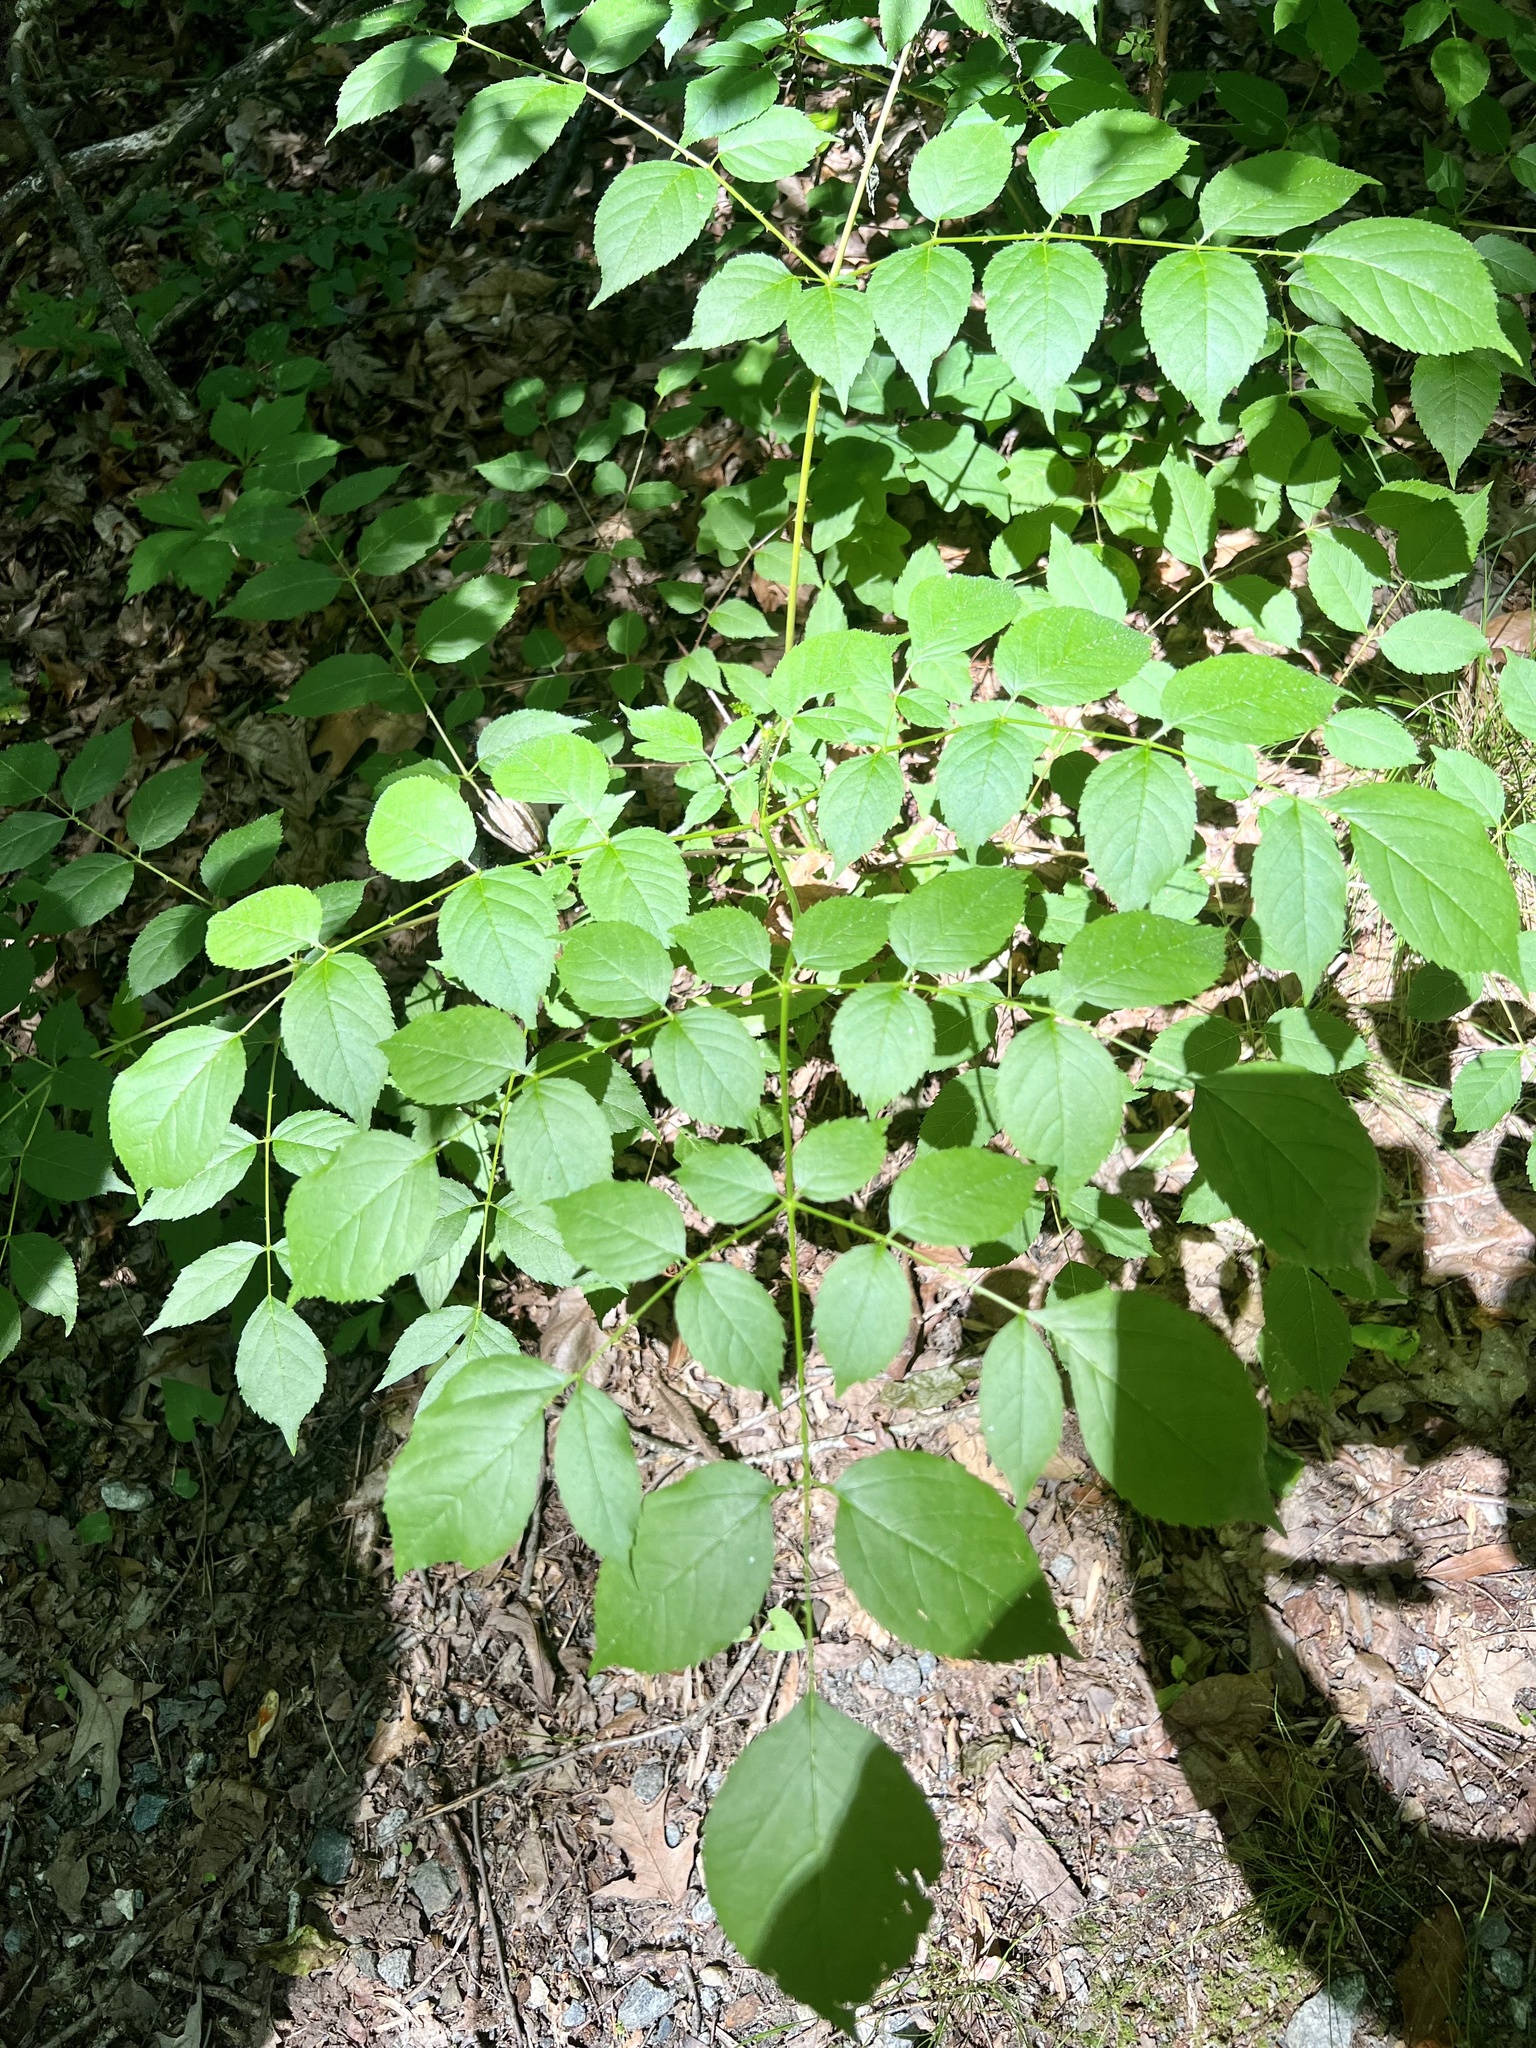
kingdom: Plantae
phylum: Tracheophyta
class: Magnoliopsida
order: Apiales
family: Araliaceae
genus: Aralia
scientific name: Aralia spinosa
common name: Hercules'-club
